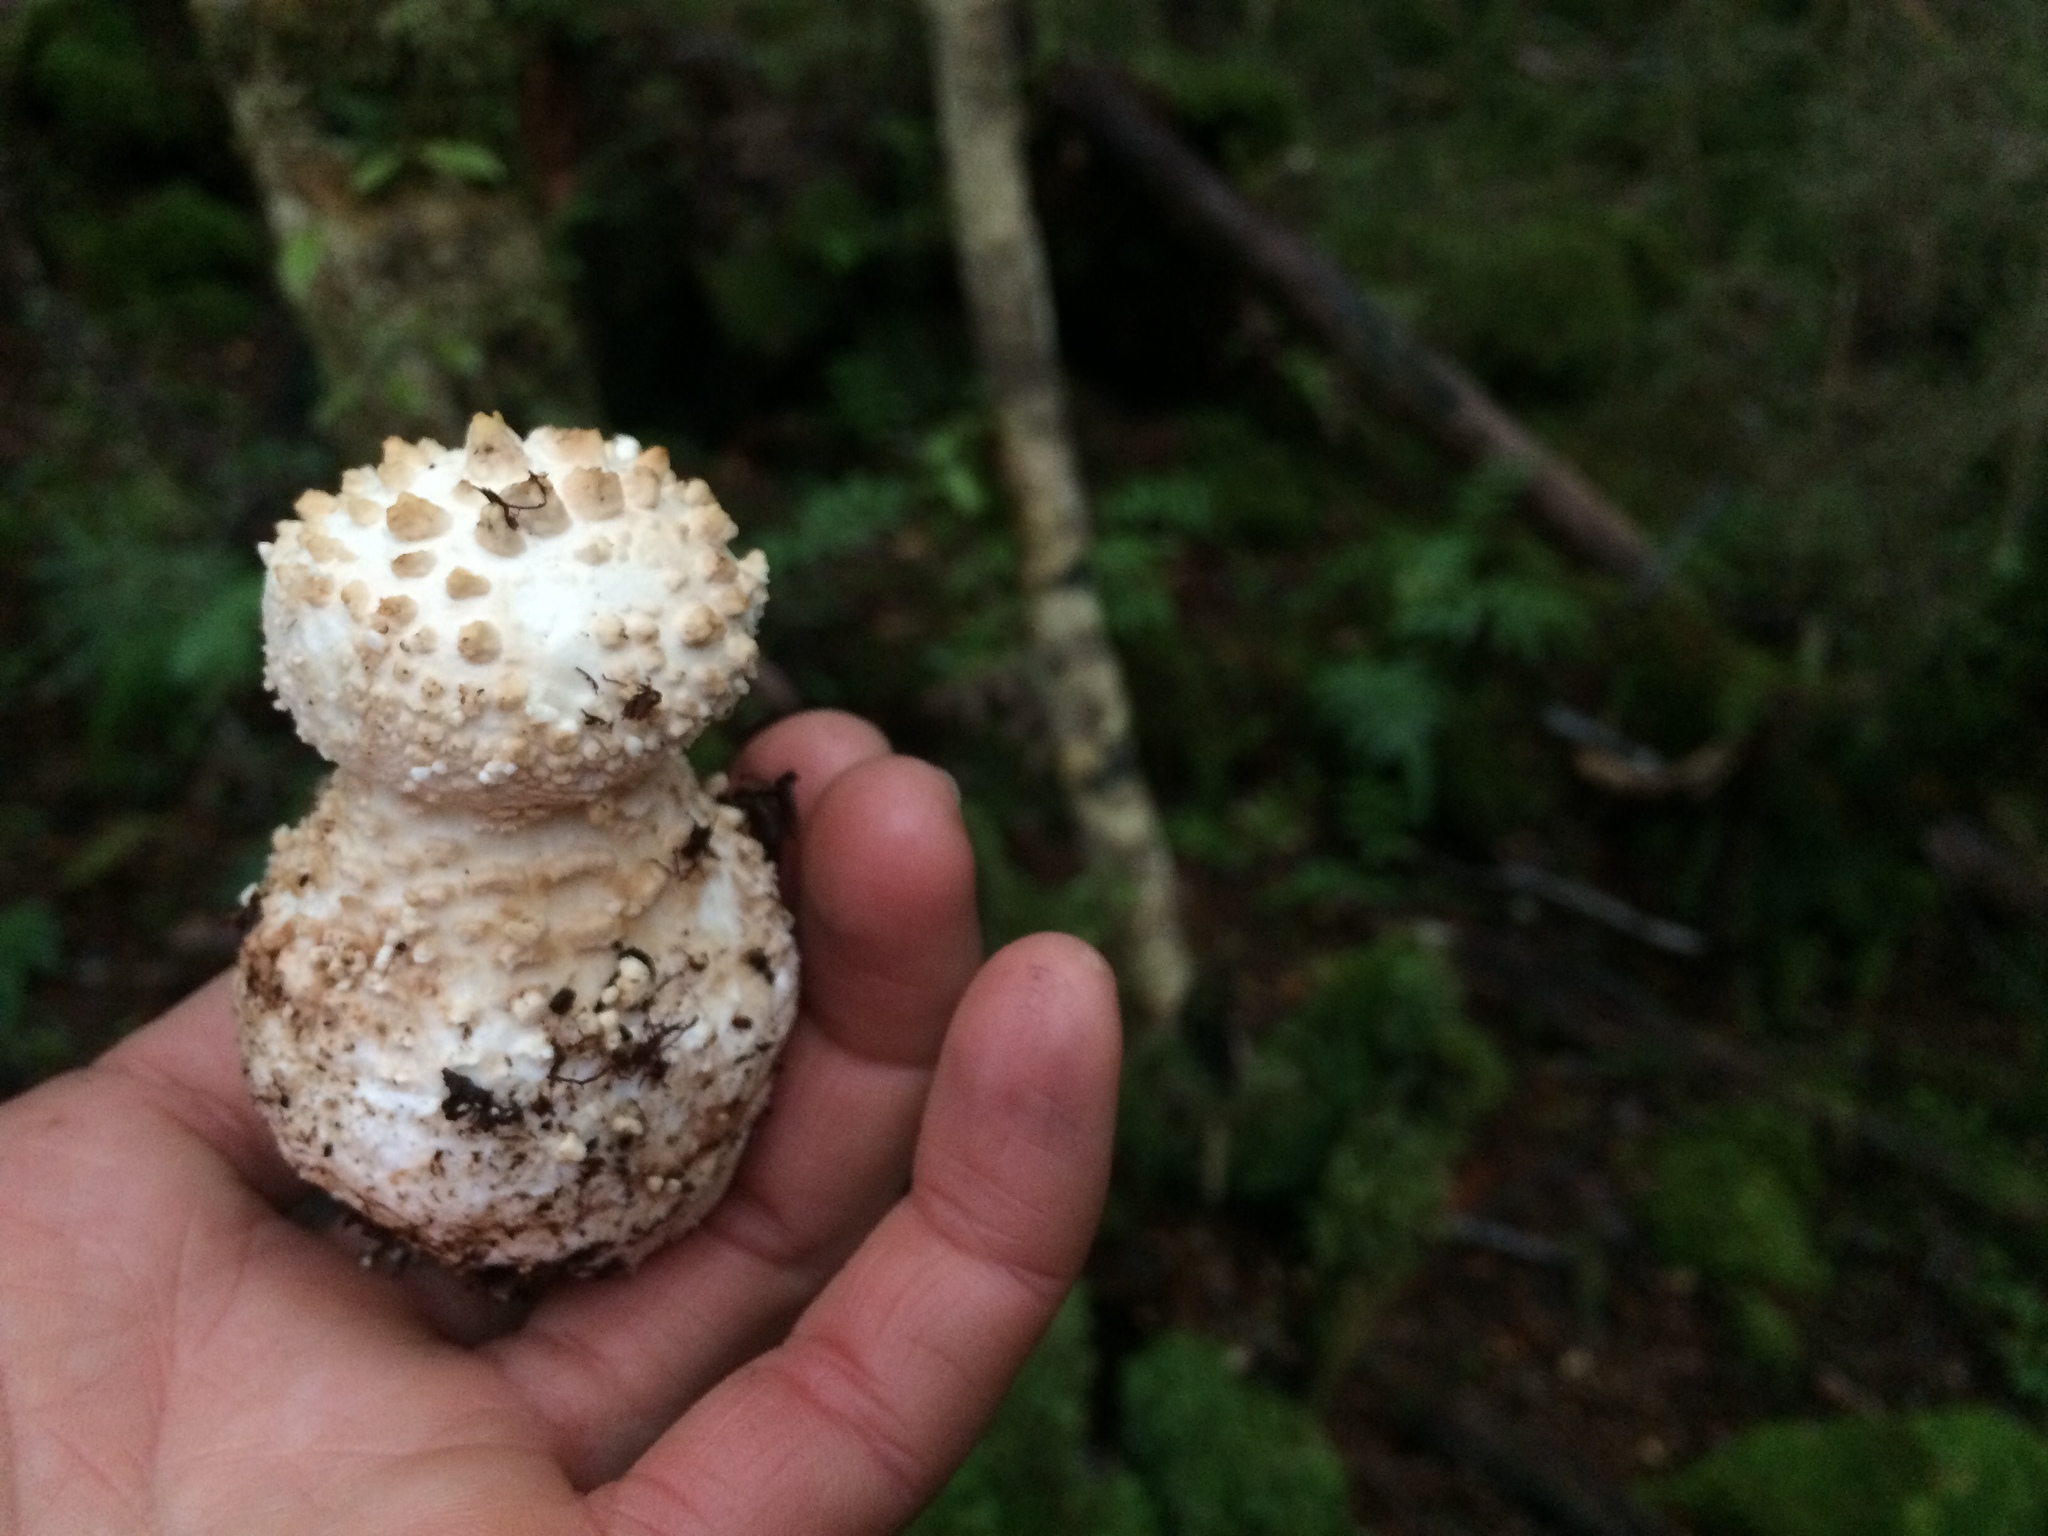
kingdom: Fungi
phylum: Basidiomycota
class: Agaricomycetes
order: Agaricales
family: Amanitaceae
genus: Amanita
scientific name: Amanita pareparina
